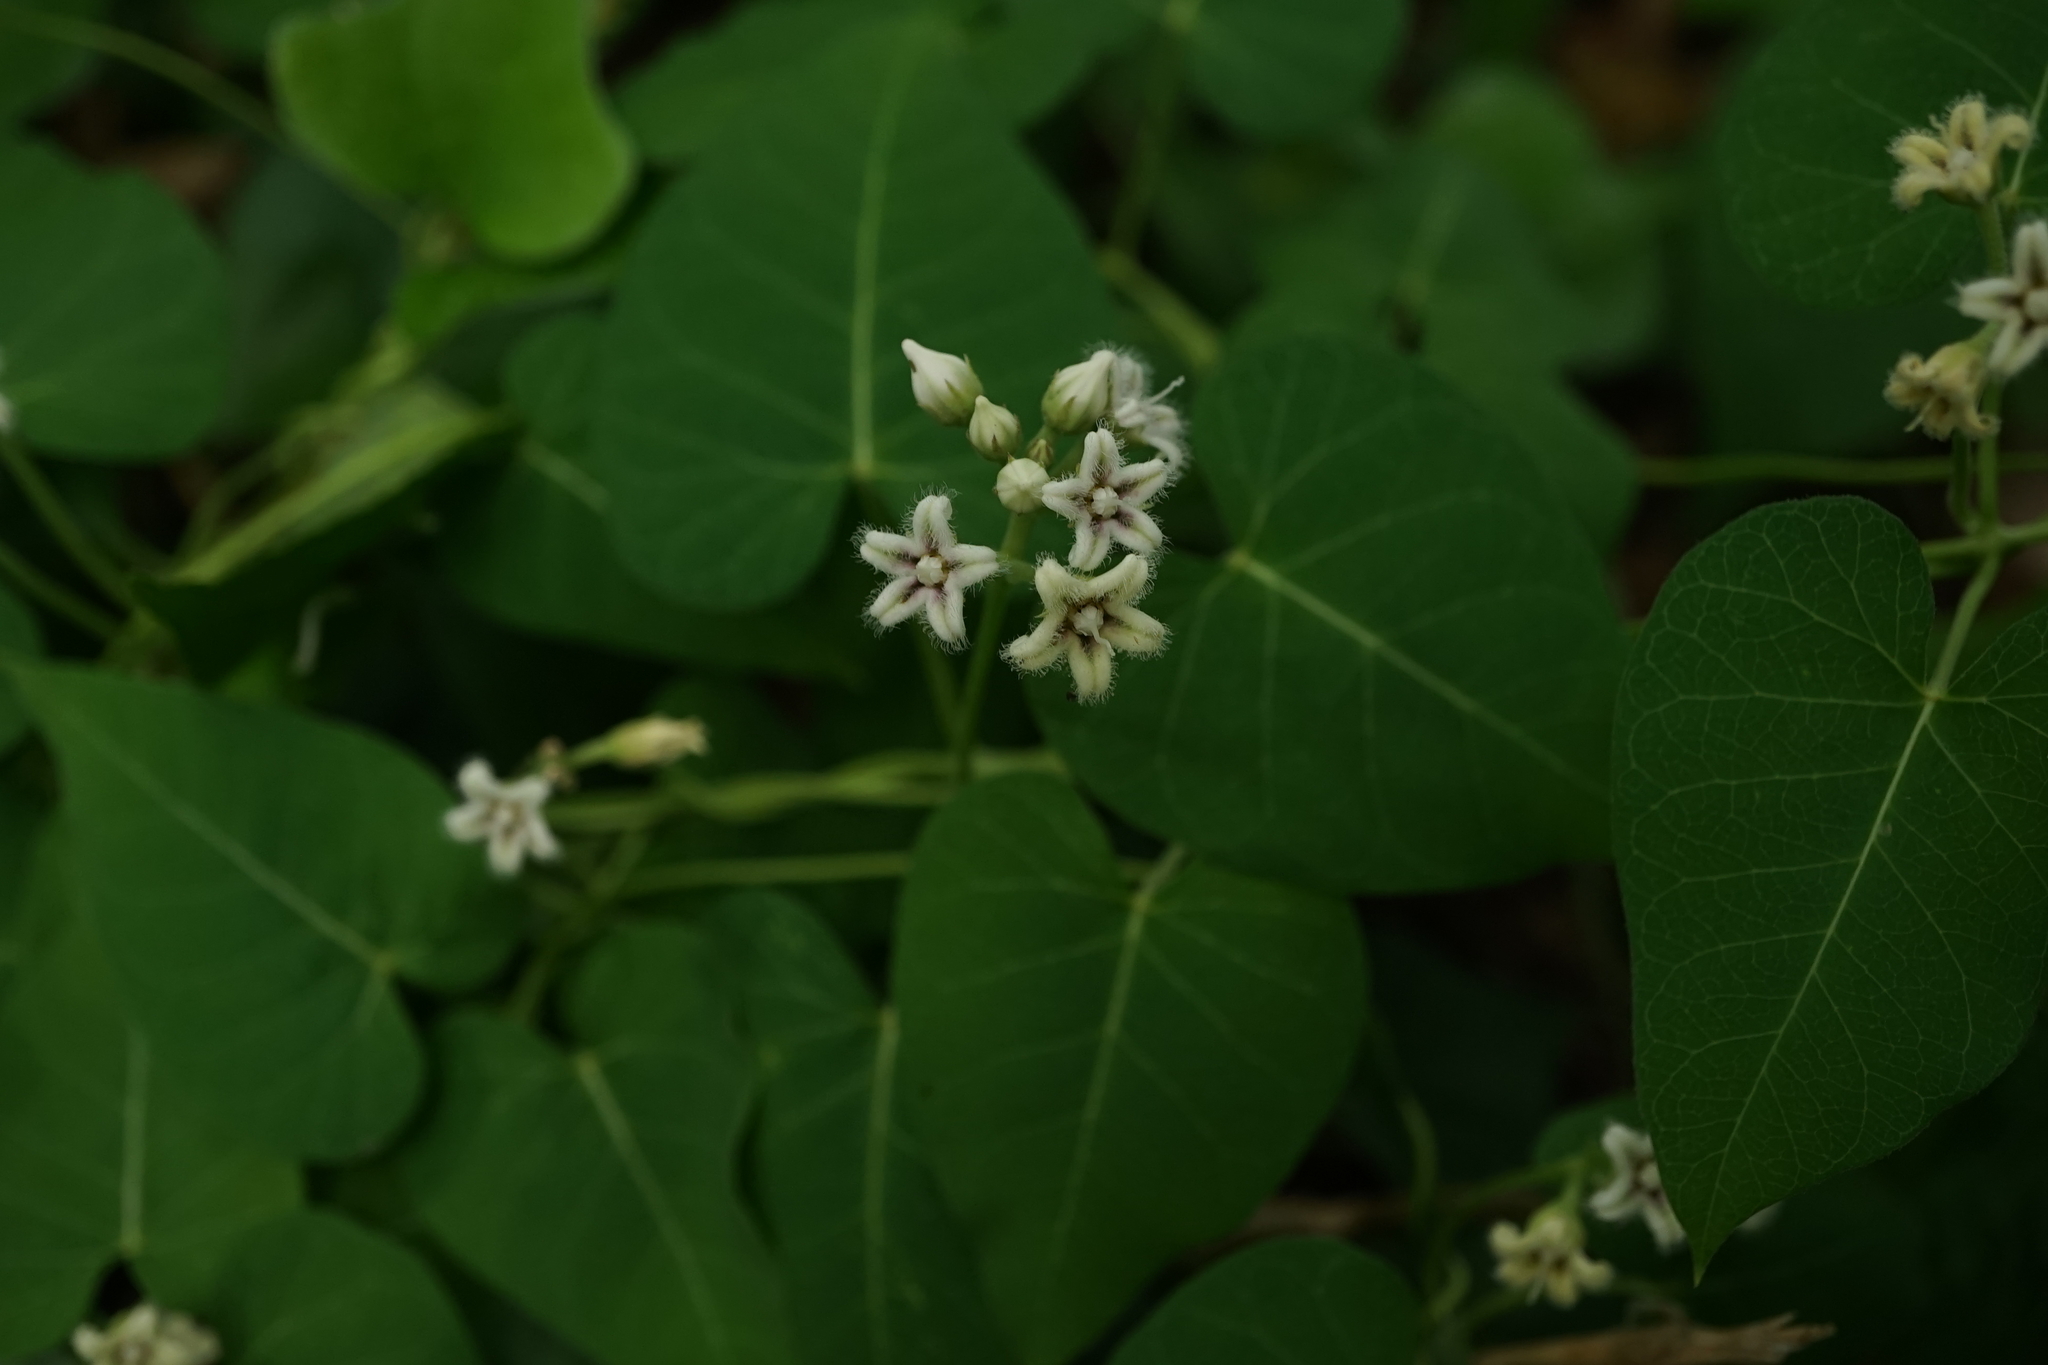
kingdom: Plantae
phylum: Tracheophyta
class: Magnoliopsida
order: Gentianales
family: Apocynaceae
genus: Cynanchum
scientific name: Cynanchum rostellatum
